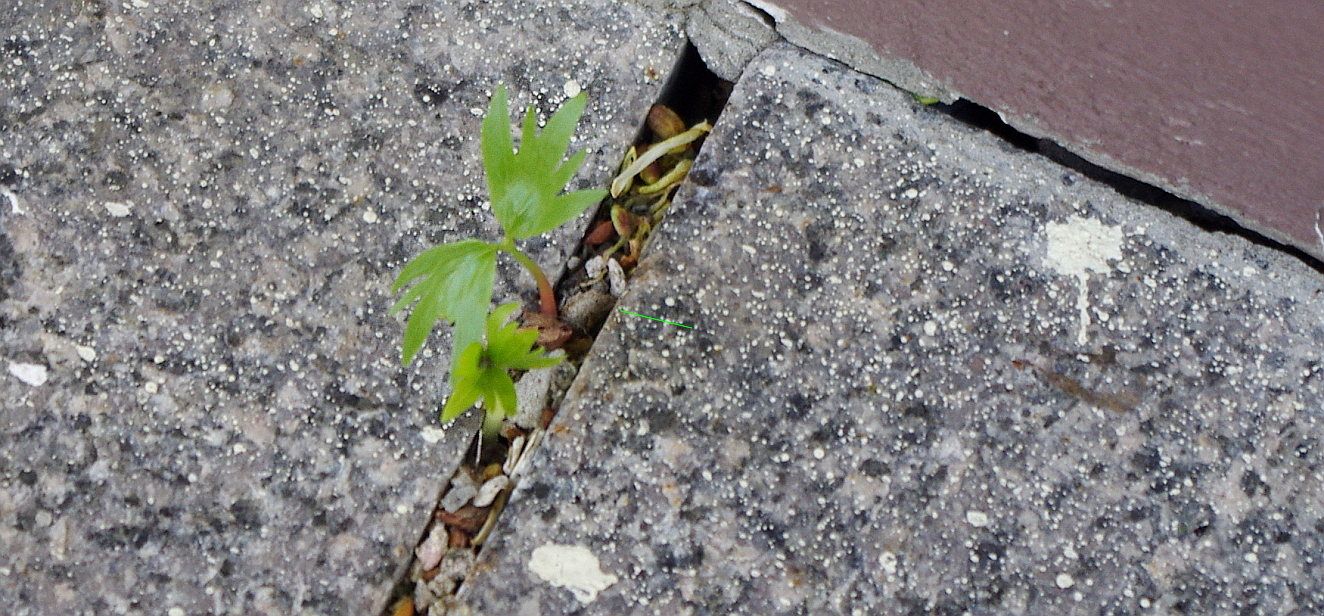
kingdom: Plantae
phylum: Tracheophyta
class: Magnoliopsida
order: Malvales
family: Malvaceae
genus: Tilia
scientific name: Tilia cordata
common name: Small-leaved lime
